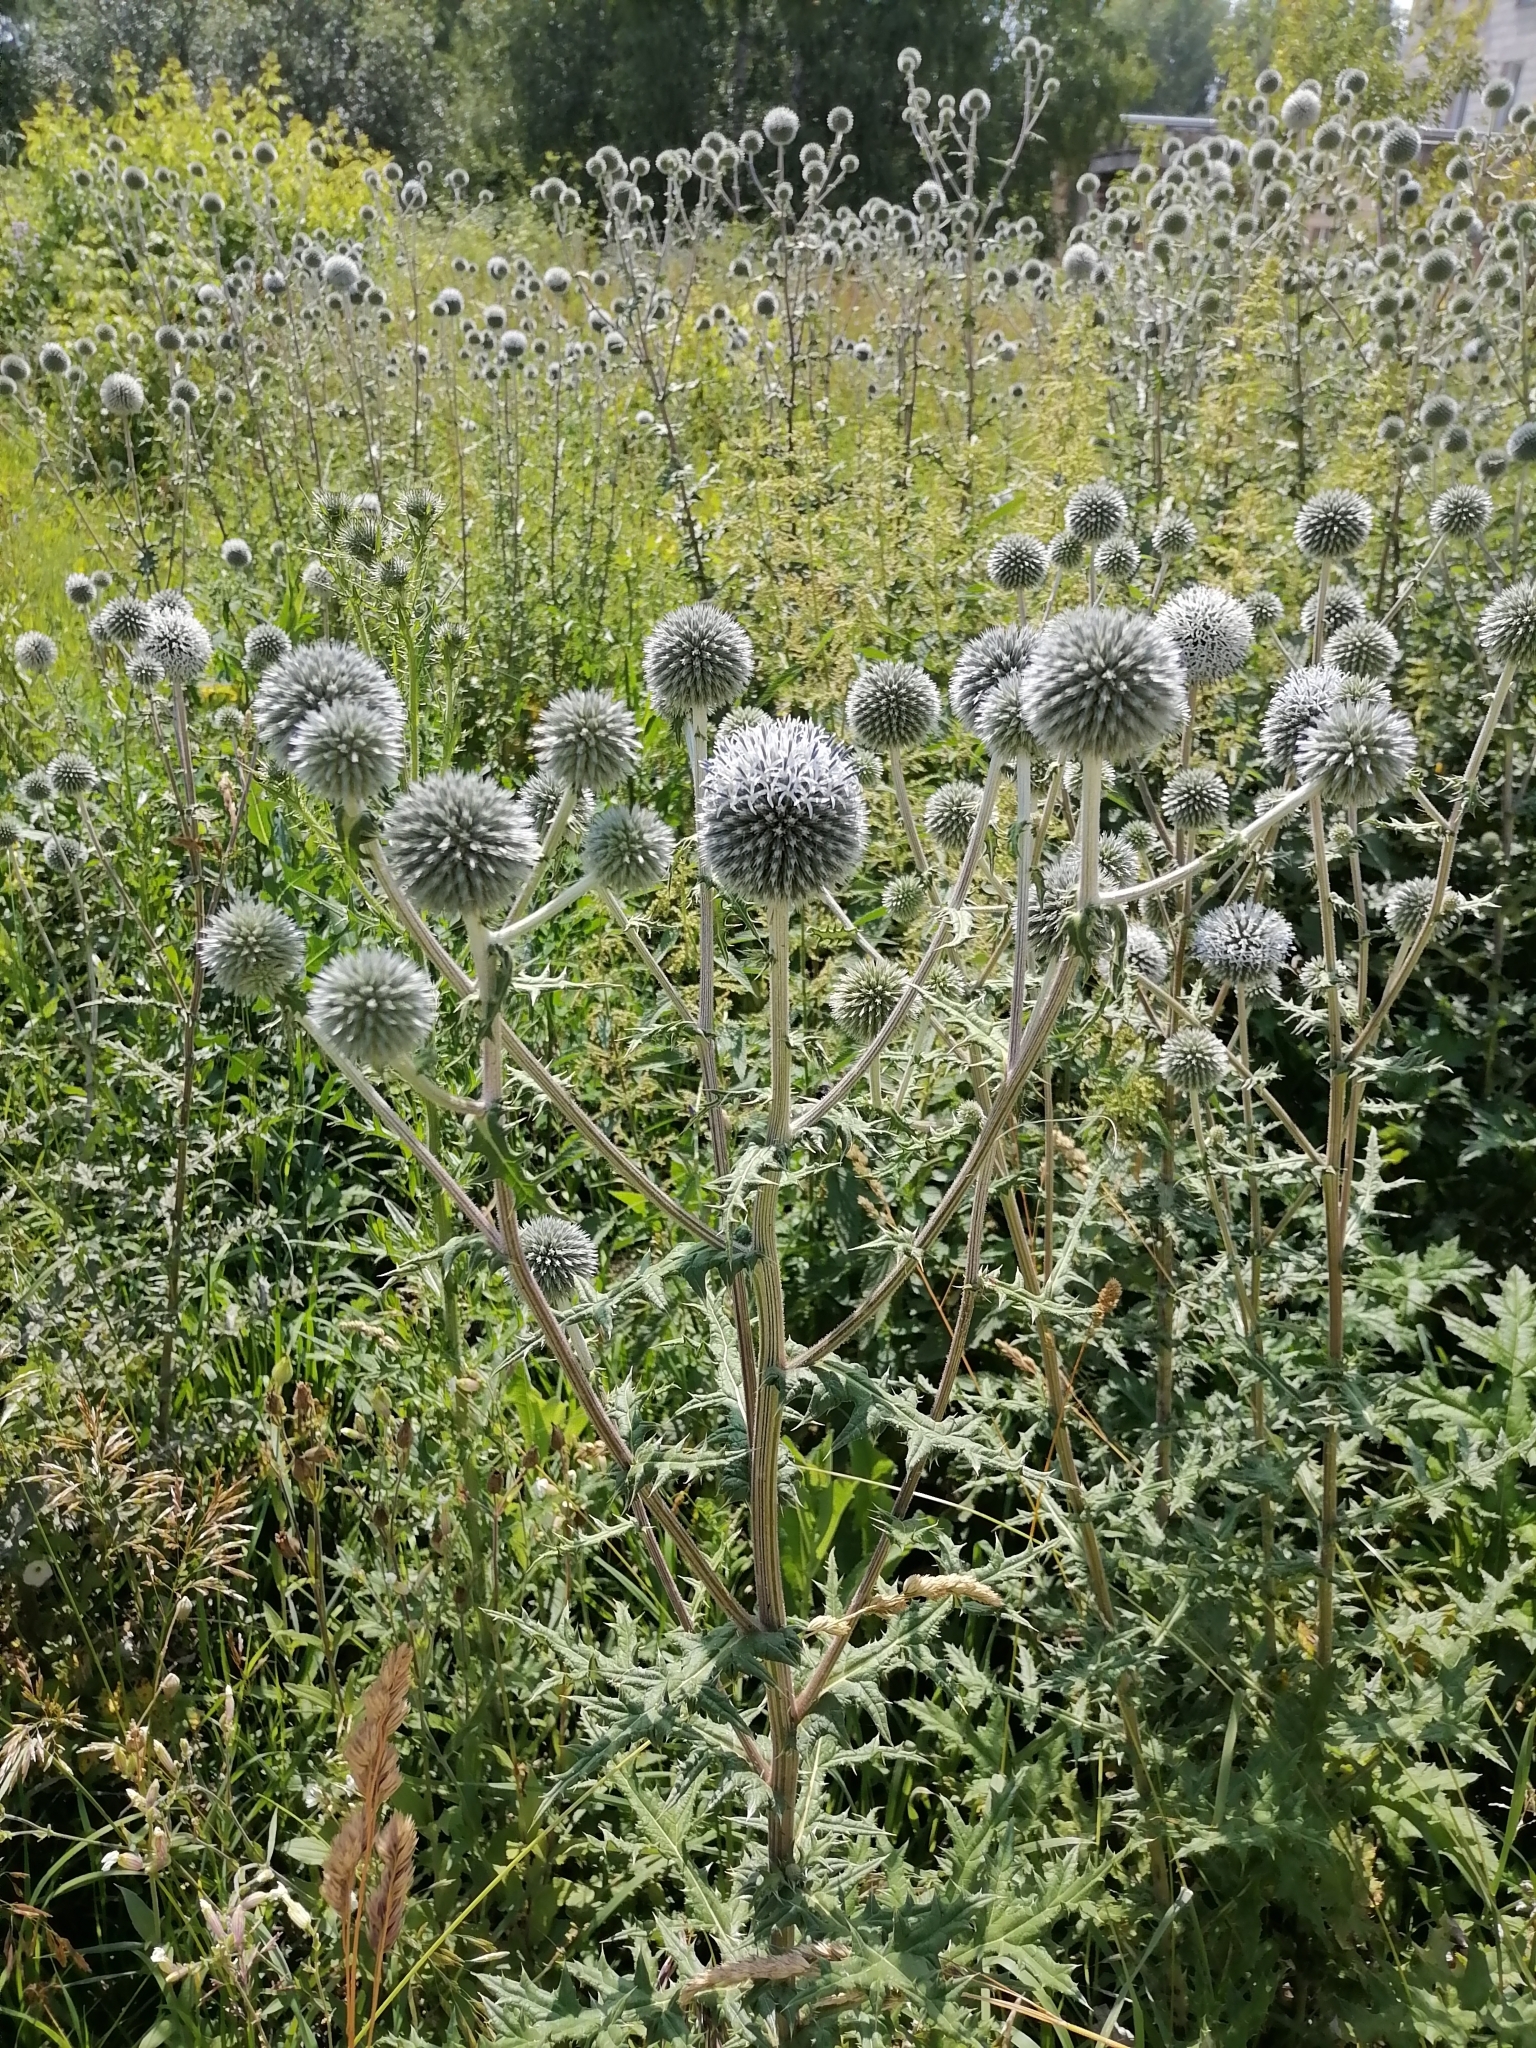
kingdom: Plantae
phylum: Tracheophyta
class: Magnoliopsida
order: Asterales
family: Asteraceae
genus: Echinops
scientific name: Echinops sphaerocephalus
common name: Glandular globe-thistle
